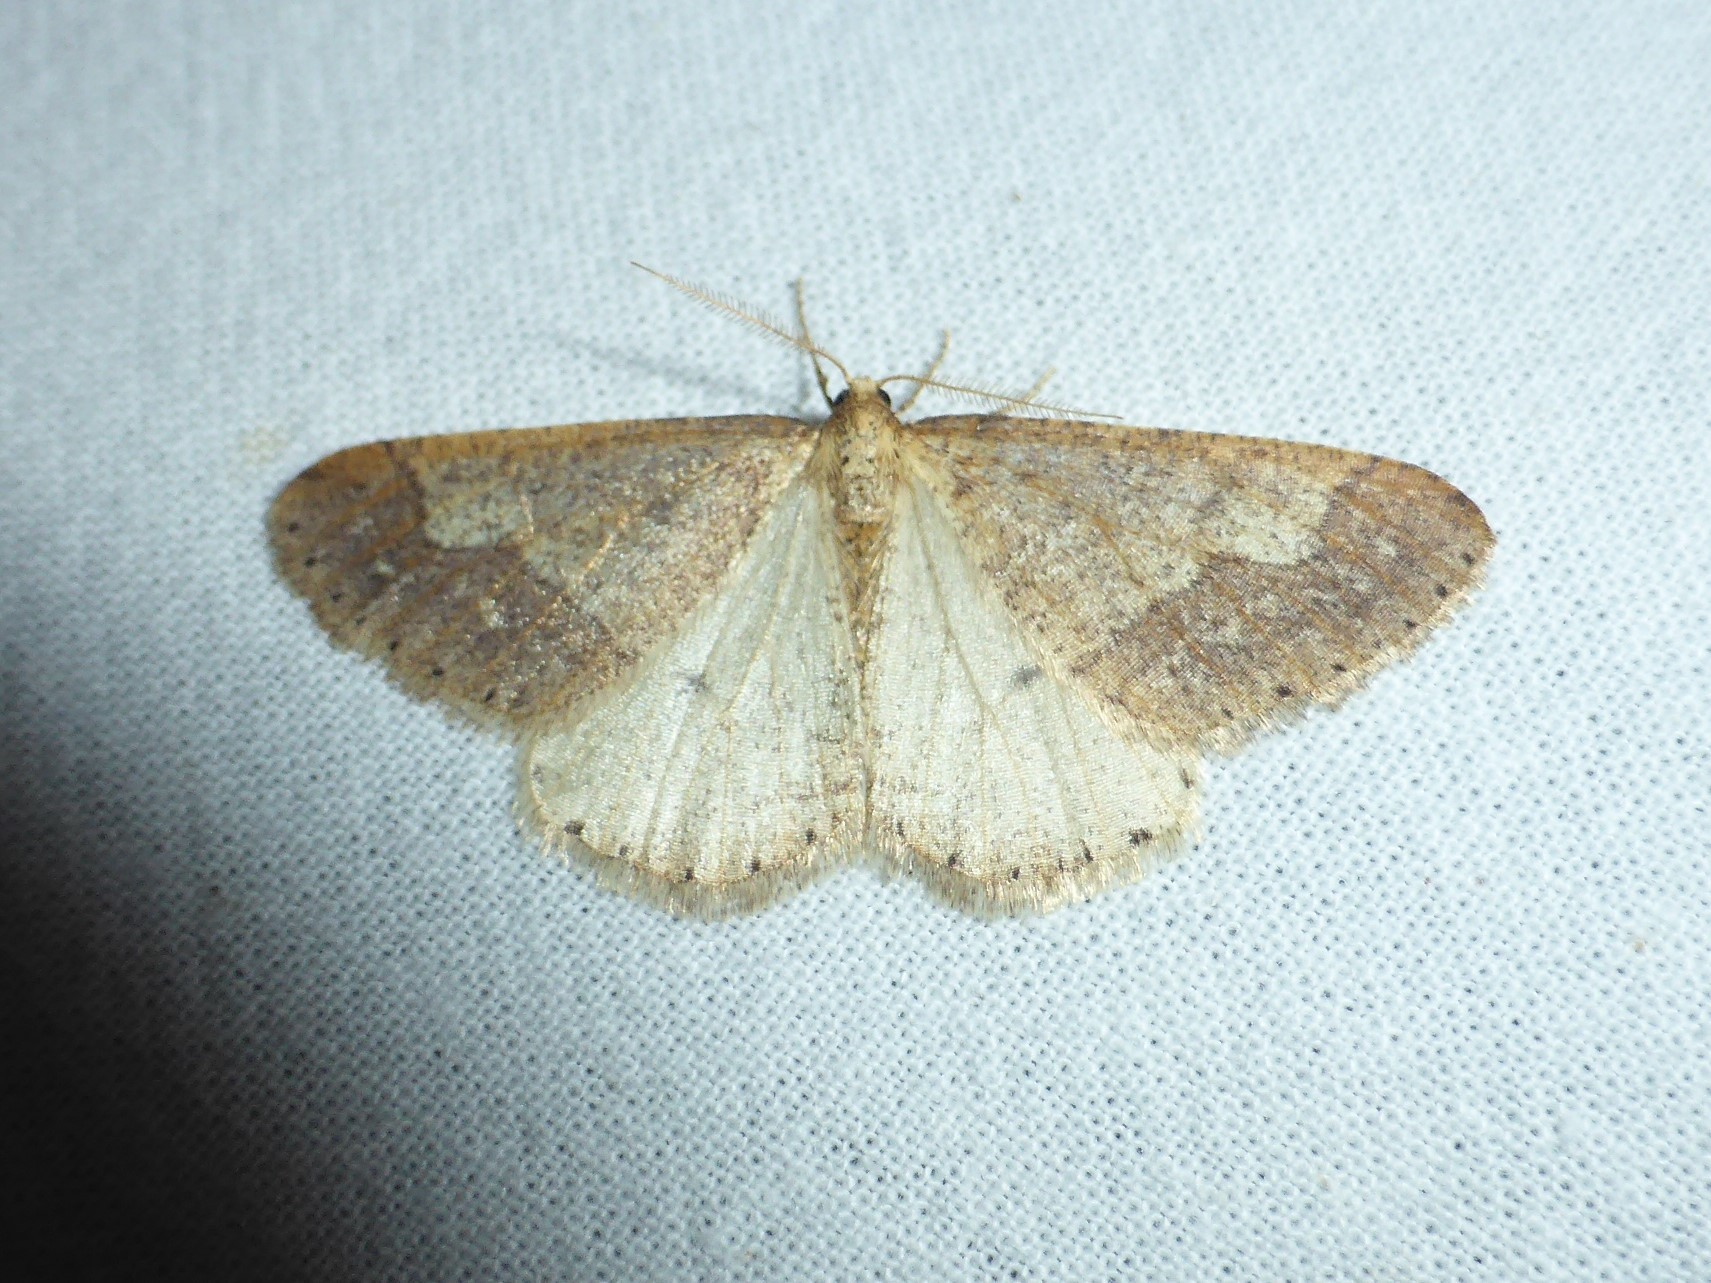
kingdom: Animalia
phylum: Arthropoda
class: Insecta
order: Lepidoptera
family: Geometridae
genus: Agriopis
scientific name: Agriopis marginaria
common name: Dotted border
